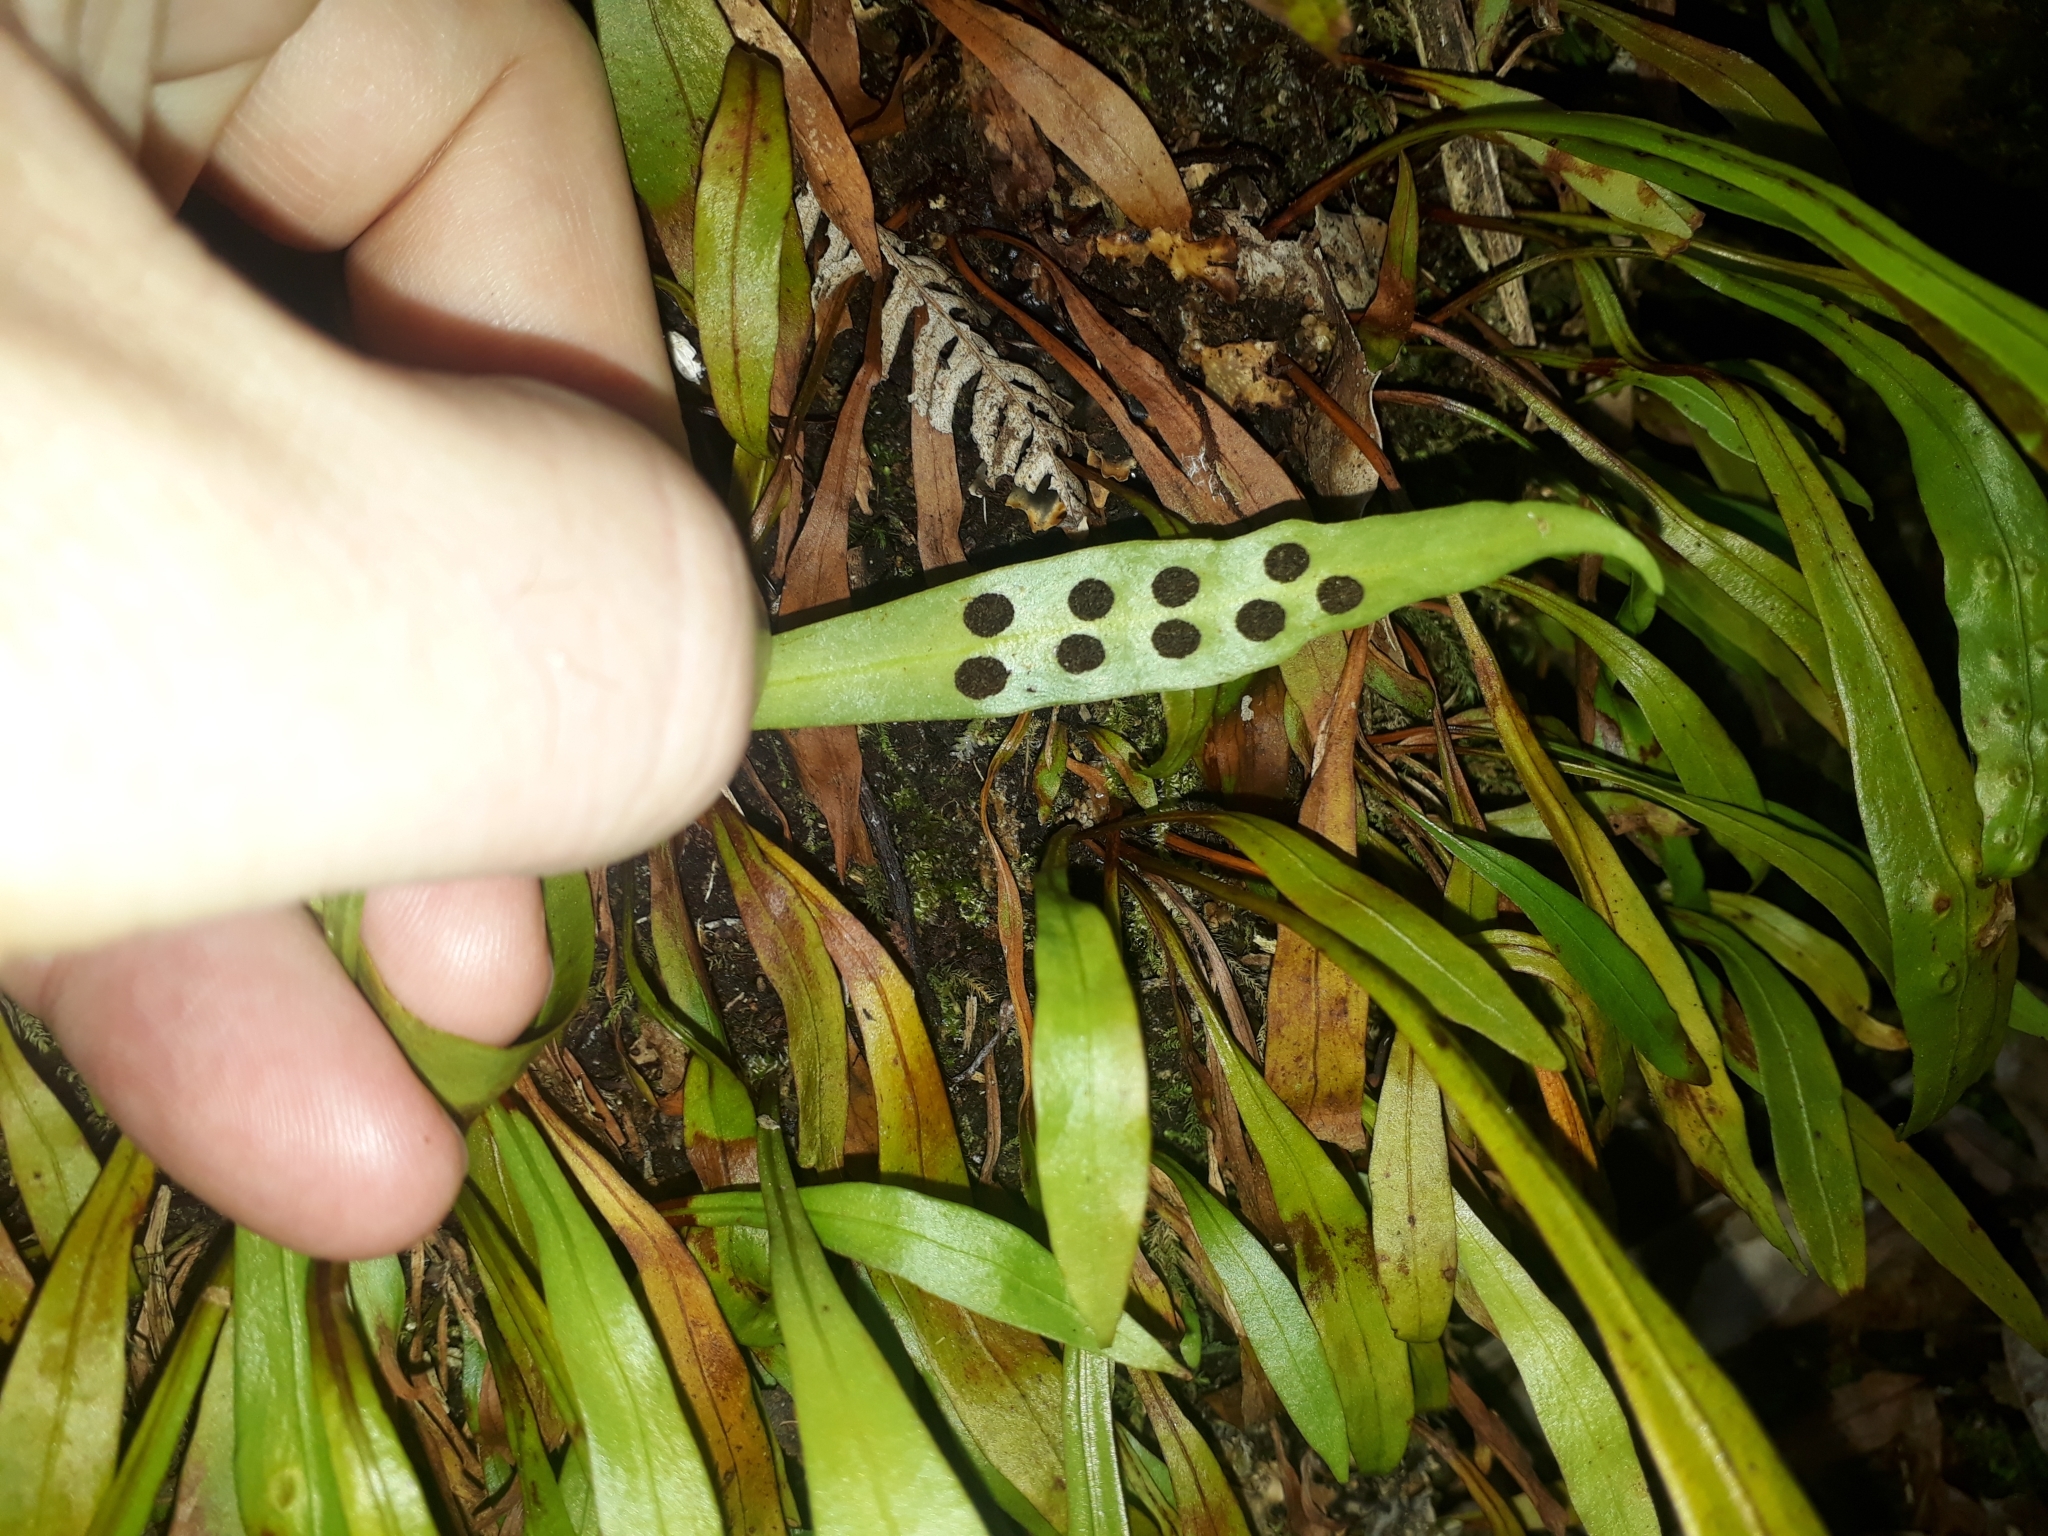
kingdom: Plantae
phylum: Tracheophyta
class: Polypodiopsida
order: Polypodiales
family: Polypodiaceae
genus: Loxogramme
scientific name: Loxogramme dictyopteris
